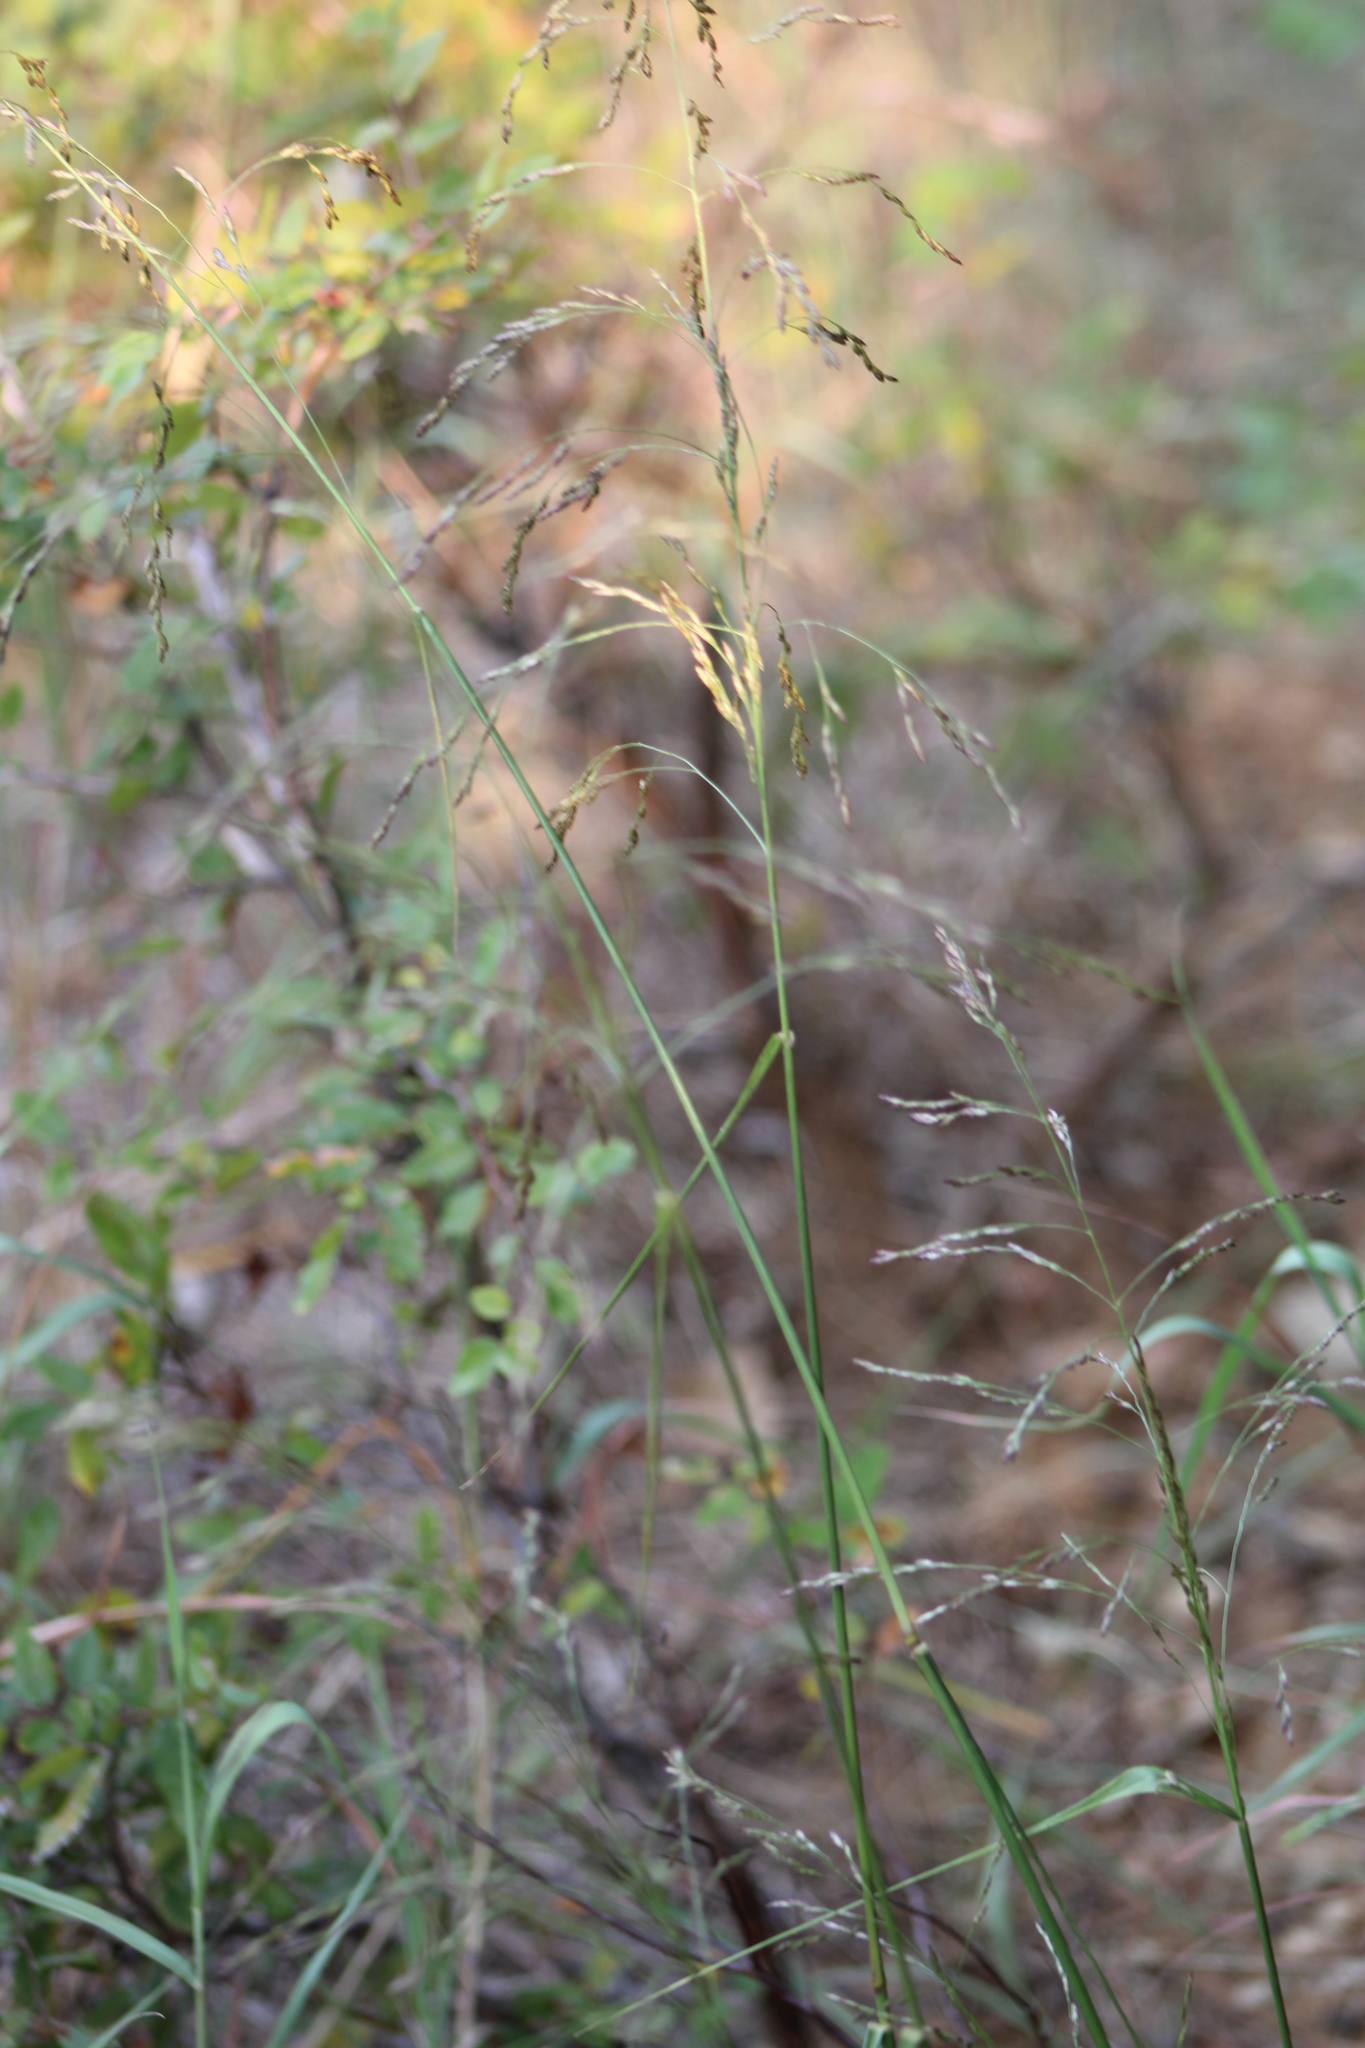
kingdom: Plantae
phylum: Tracheophyta
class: Liliopsida
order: Poales
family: Poaceae
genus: Tridens
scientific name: Tridens flavus
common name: Purpletop
